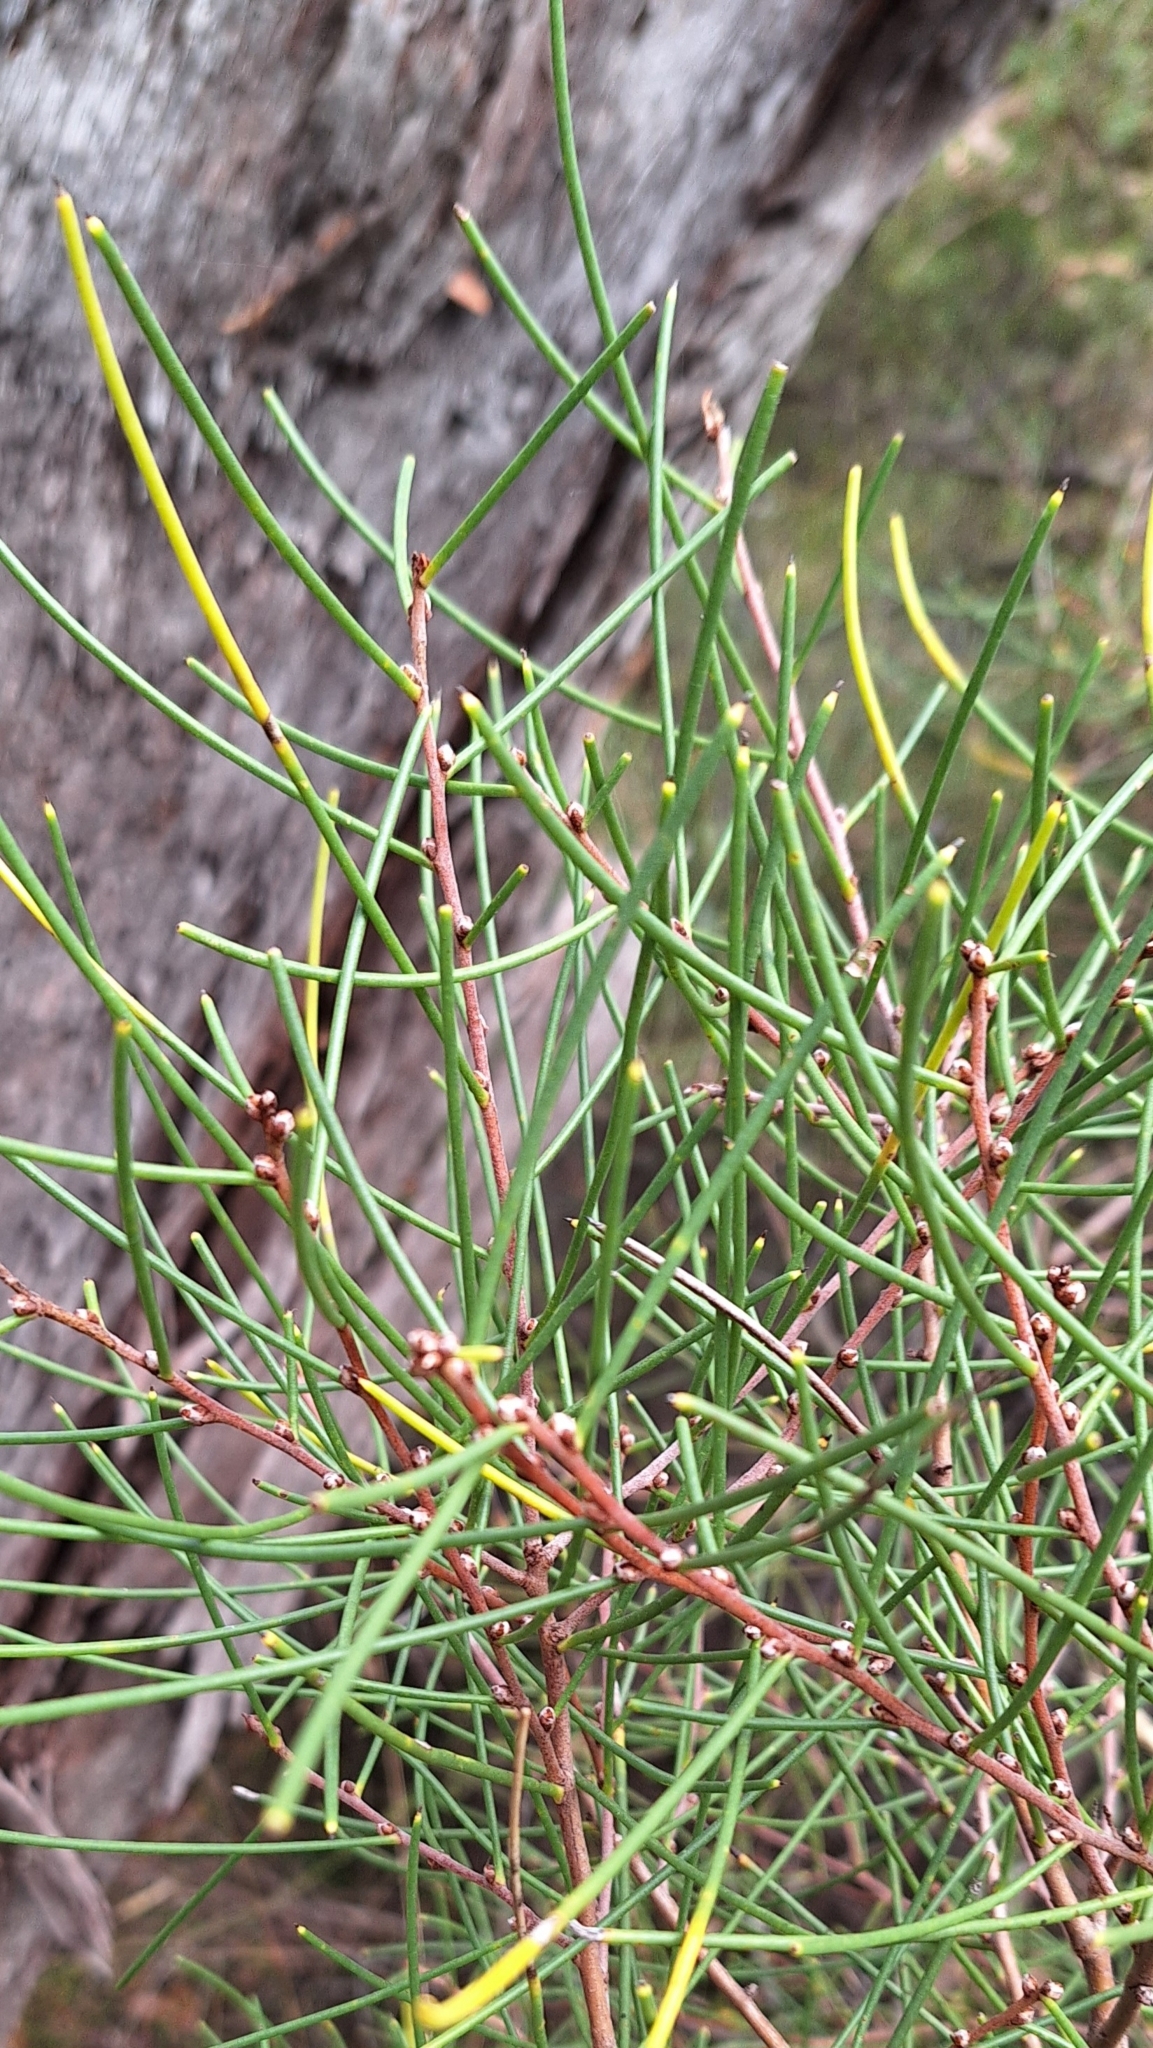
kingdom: Plantae
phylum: Tracheophyta
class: Magnoliopsida
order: Proteales
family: Proteaceae
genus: Hakea
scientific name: Hakea rostrata
